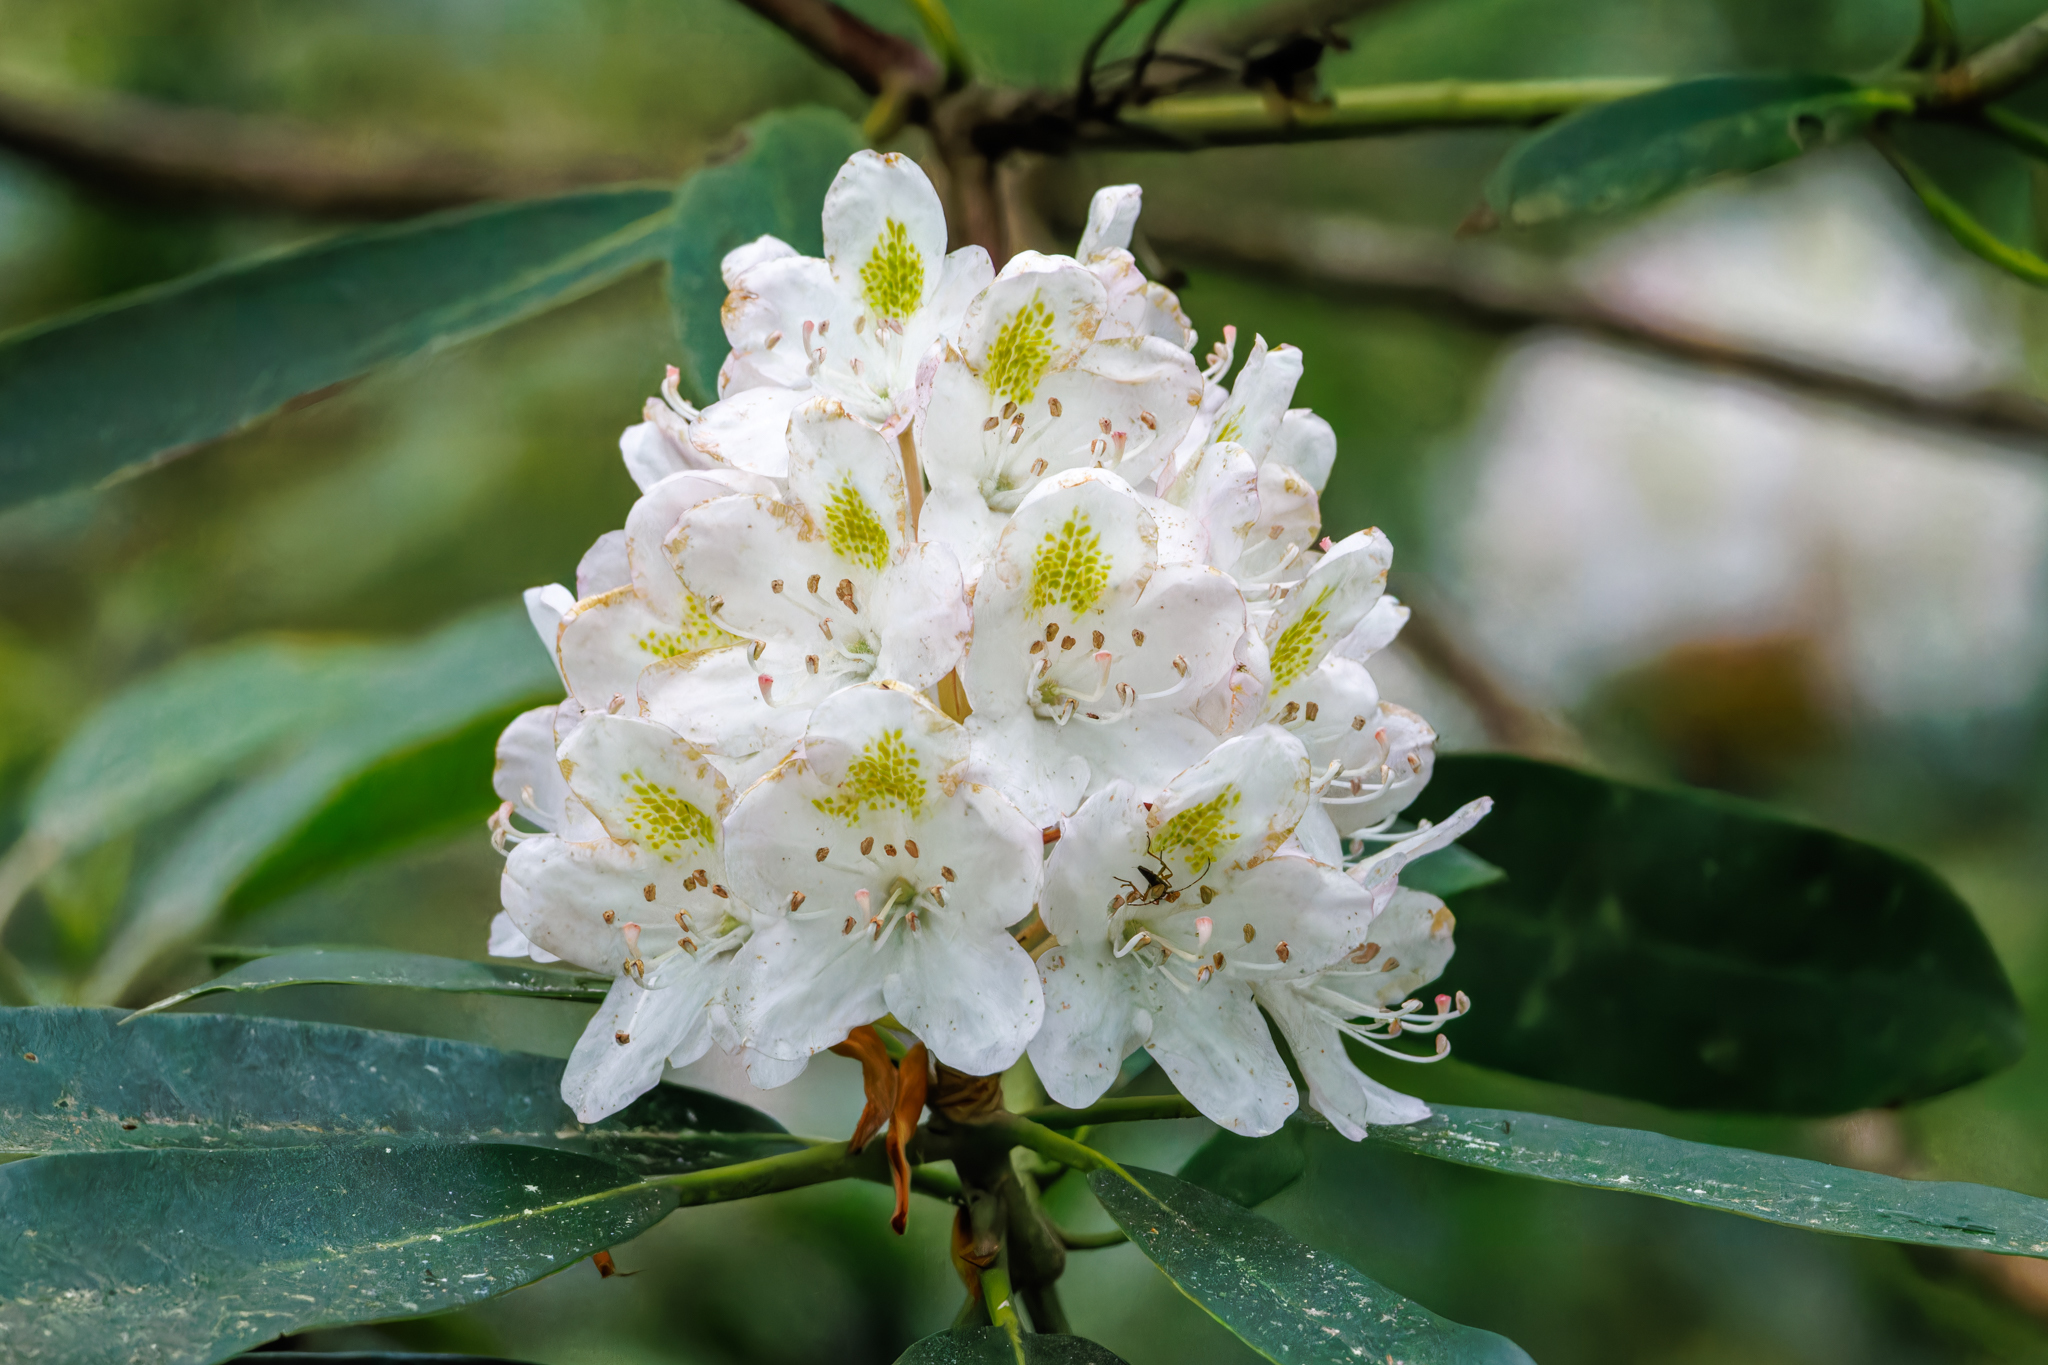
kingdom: Plantae
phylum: Tracheophyta
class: Magnoliopsida
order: Ericales
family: Ericaceae
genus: Rhododendron
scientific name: Rhododendron maximum
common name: Great rhododendron
